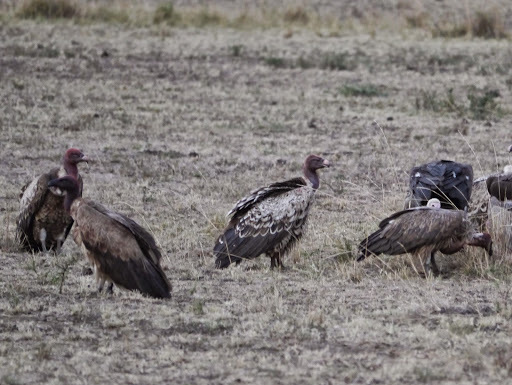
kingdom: Animalia
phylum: Chordata
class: Aves
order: Accipitriformes
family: Accipitridae
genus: Gyps
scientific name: Gyps rueppellii
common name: Rüppell's vulture
